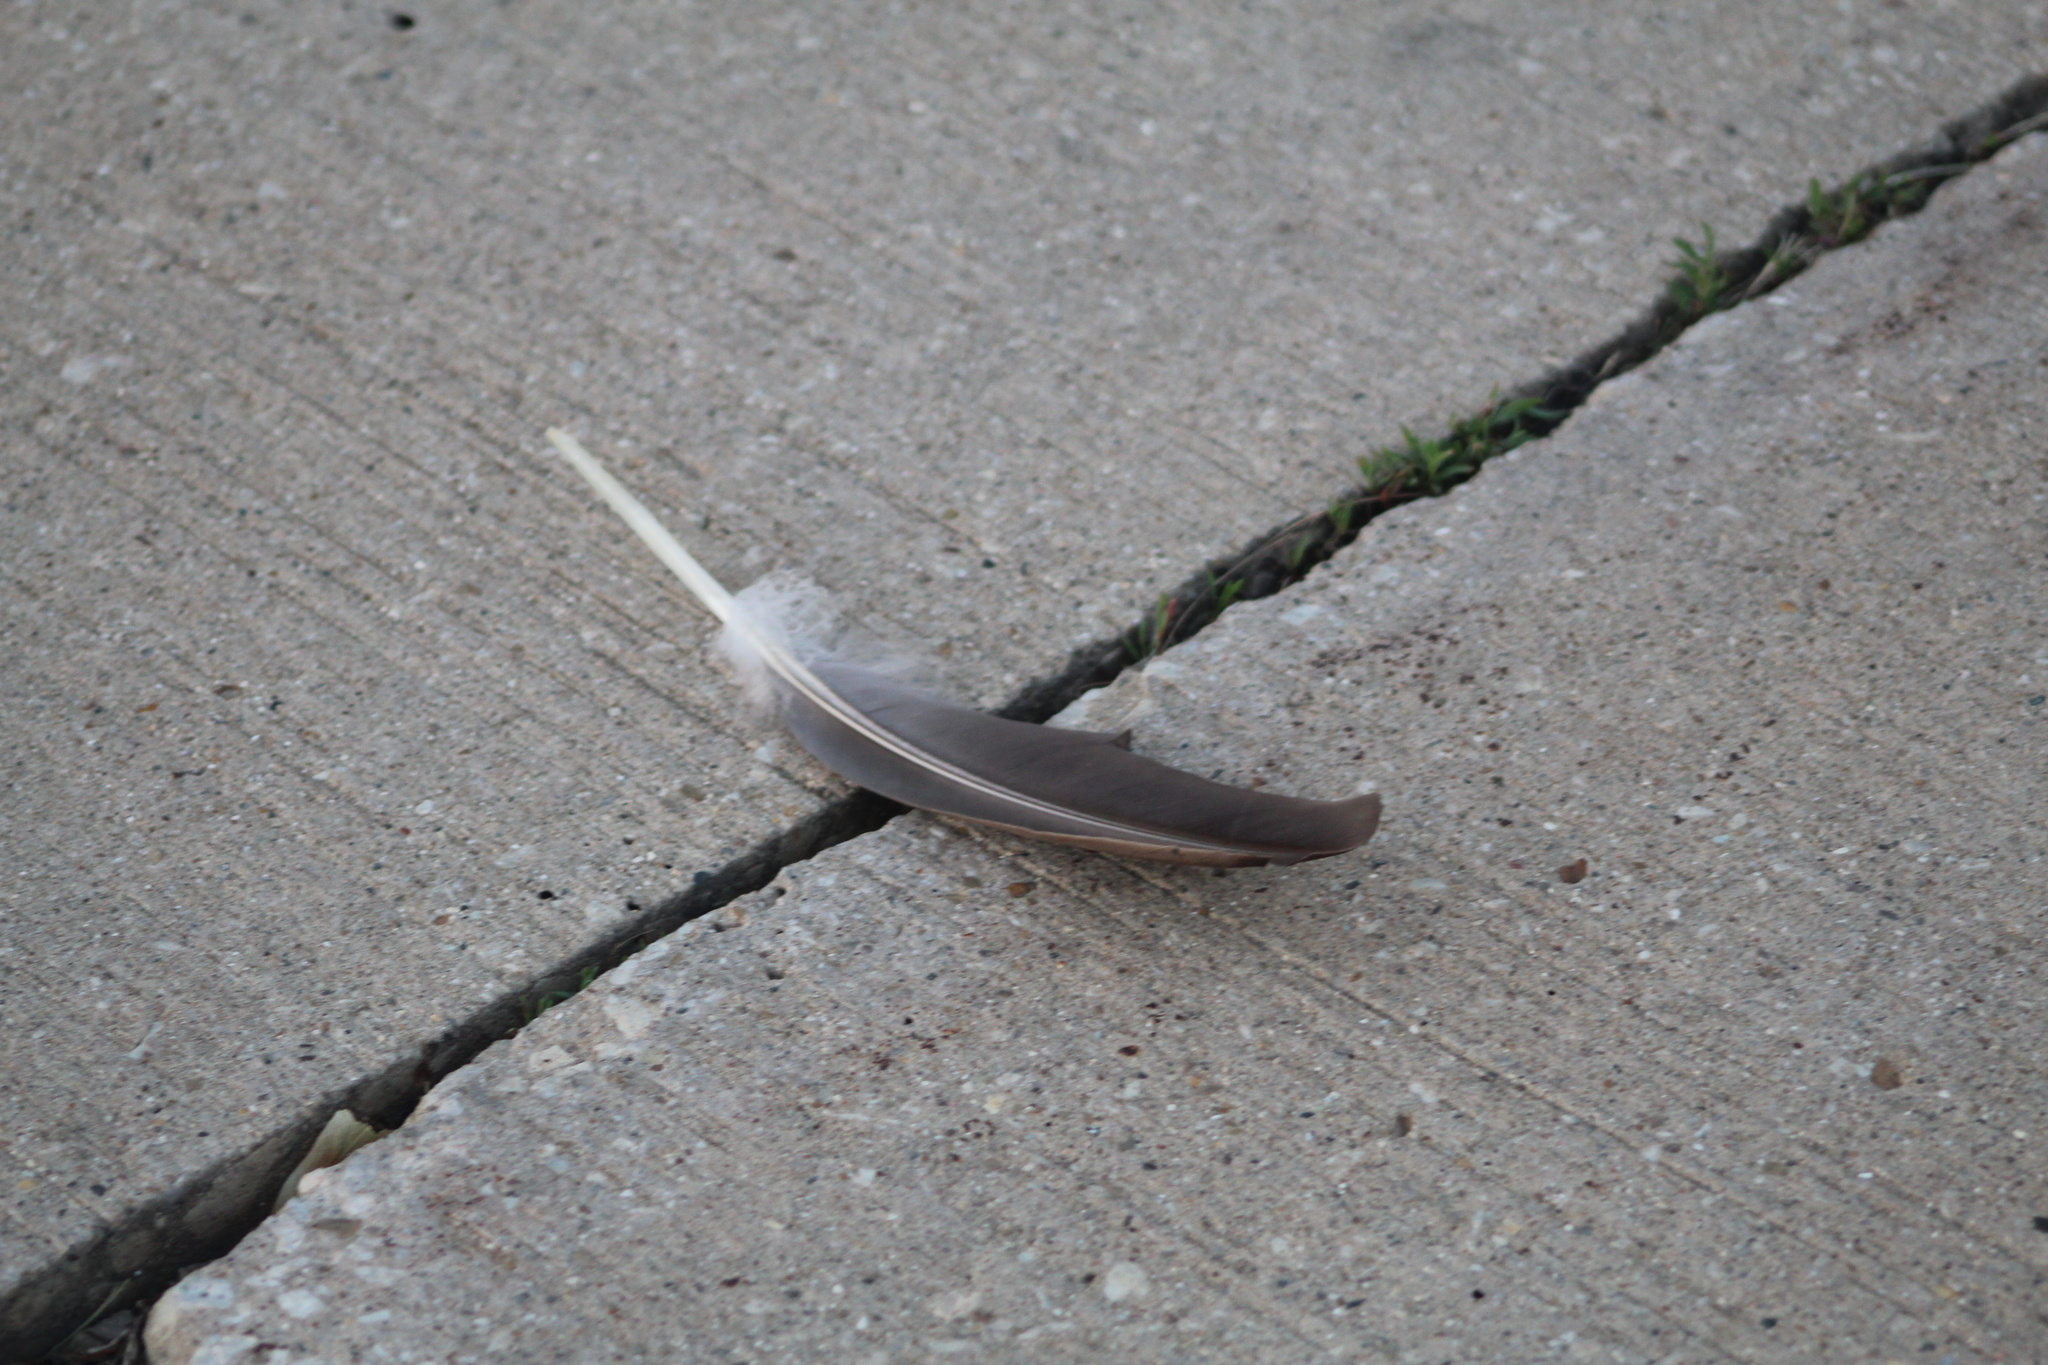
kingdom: Animalia
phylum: Chordata
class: Aves
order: Anseriformes
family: Anatidae
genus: Branta
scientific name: Branta canadensis
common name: Canada goose
